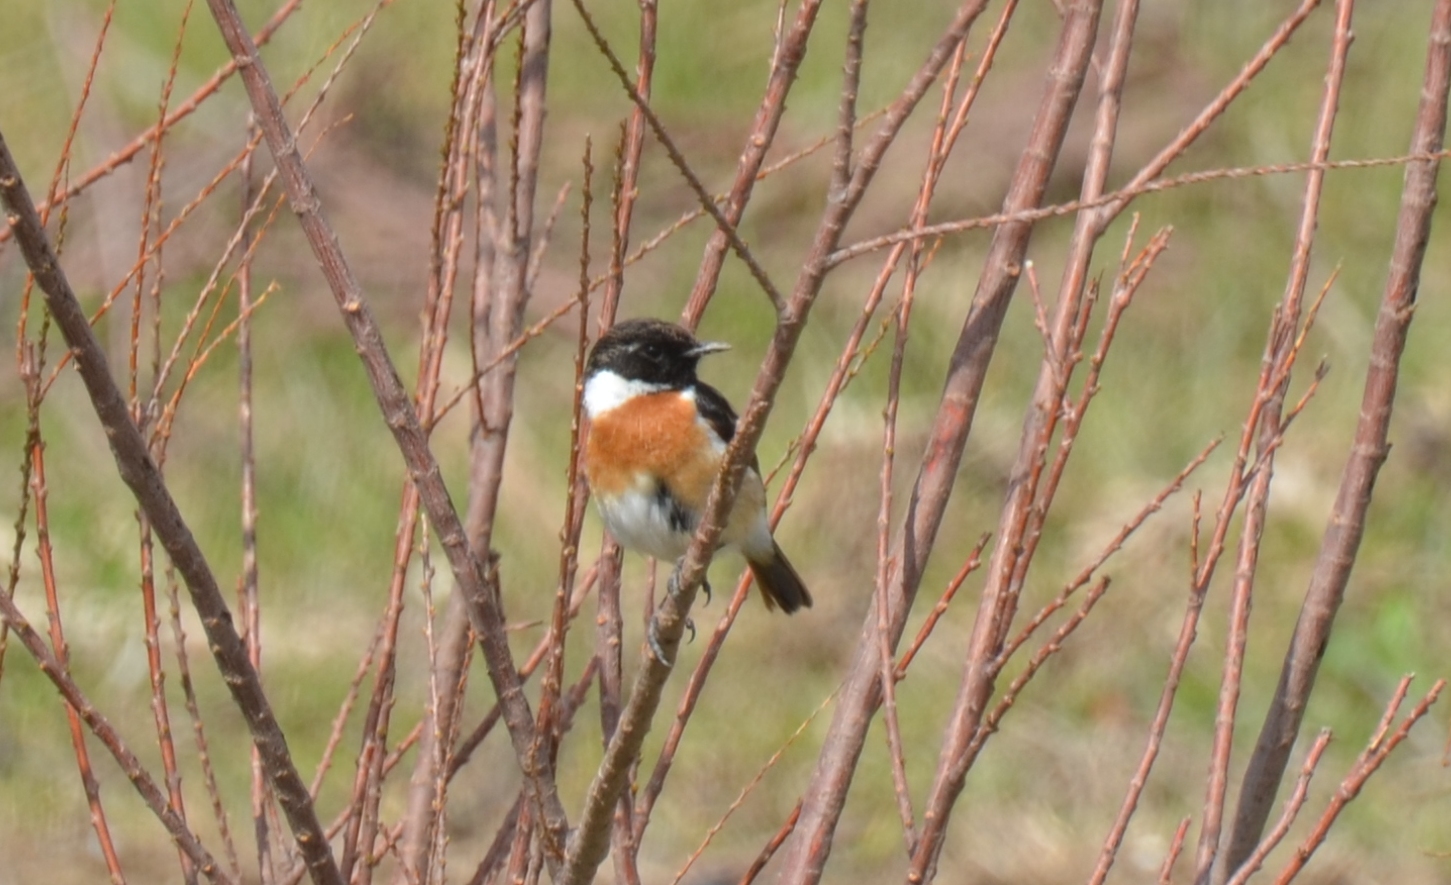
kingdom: Animalia
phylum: Chordata
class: Aves
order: Passeriformes
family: Muscicapidae
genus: Saxicola
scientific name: Saxicola rubicola
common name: European stonechat
